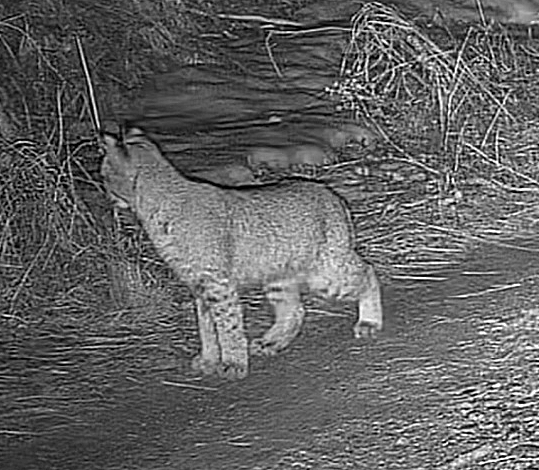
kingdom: Animalia
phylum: Chordata
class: Mammalia
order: Carnivora
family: Felidae
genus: Lynx
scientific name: Lynx rufus
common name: Bobcat
